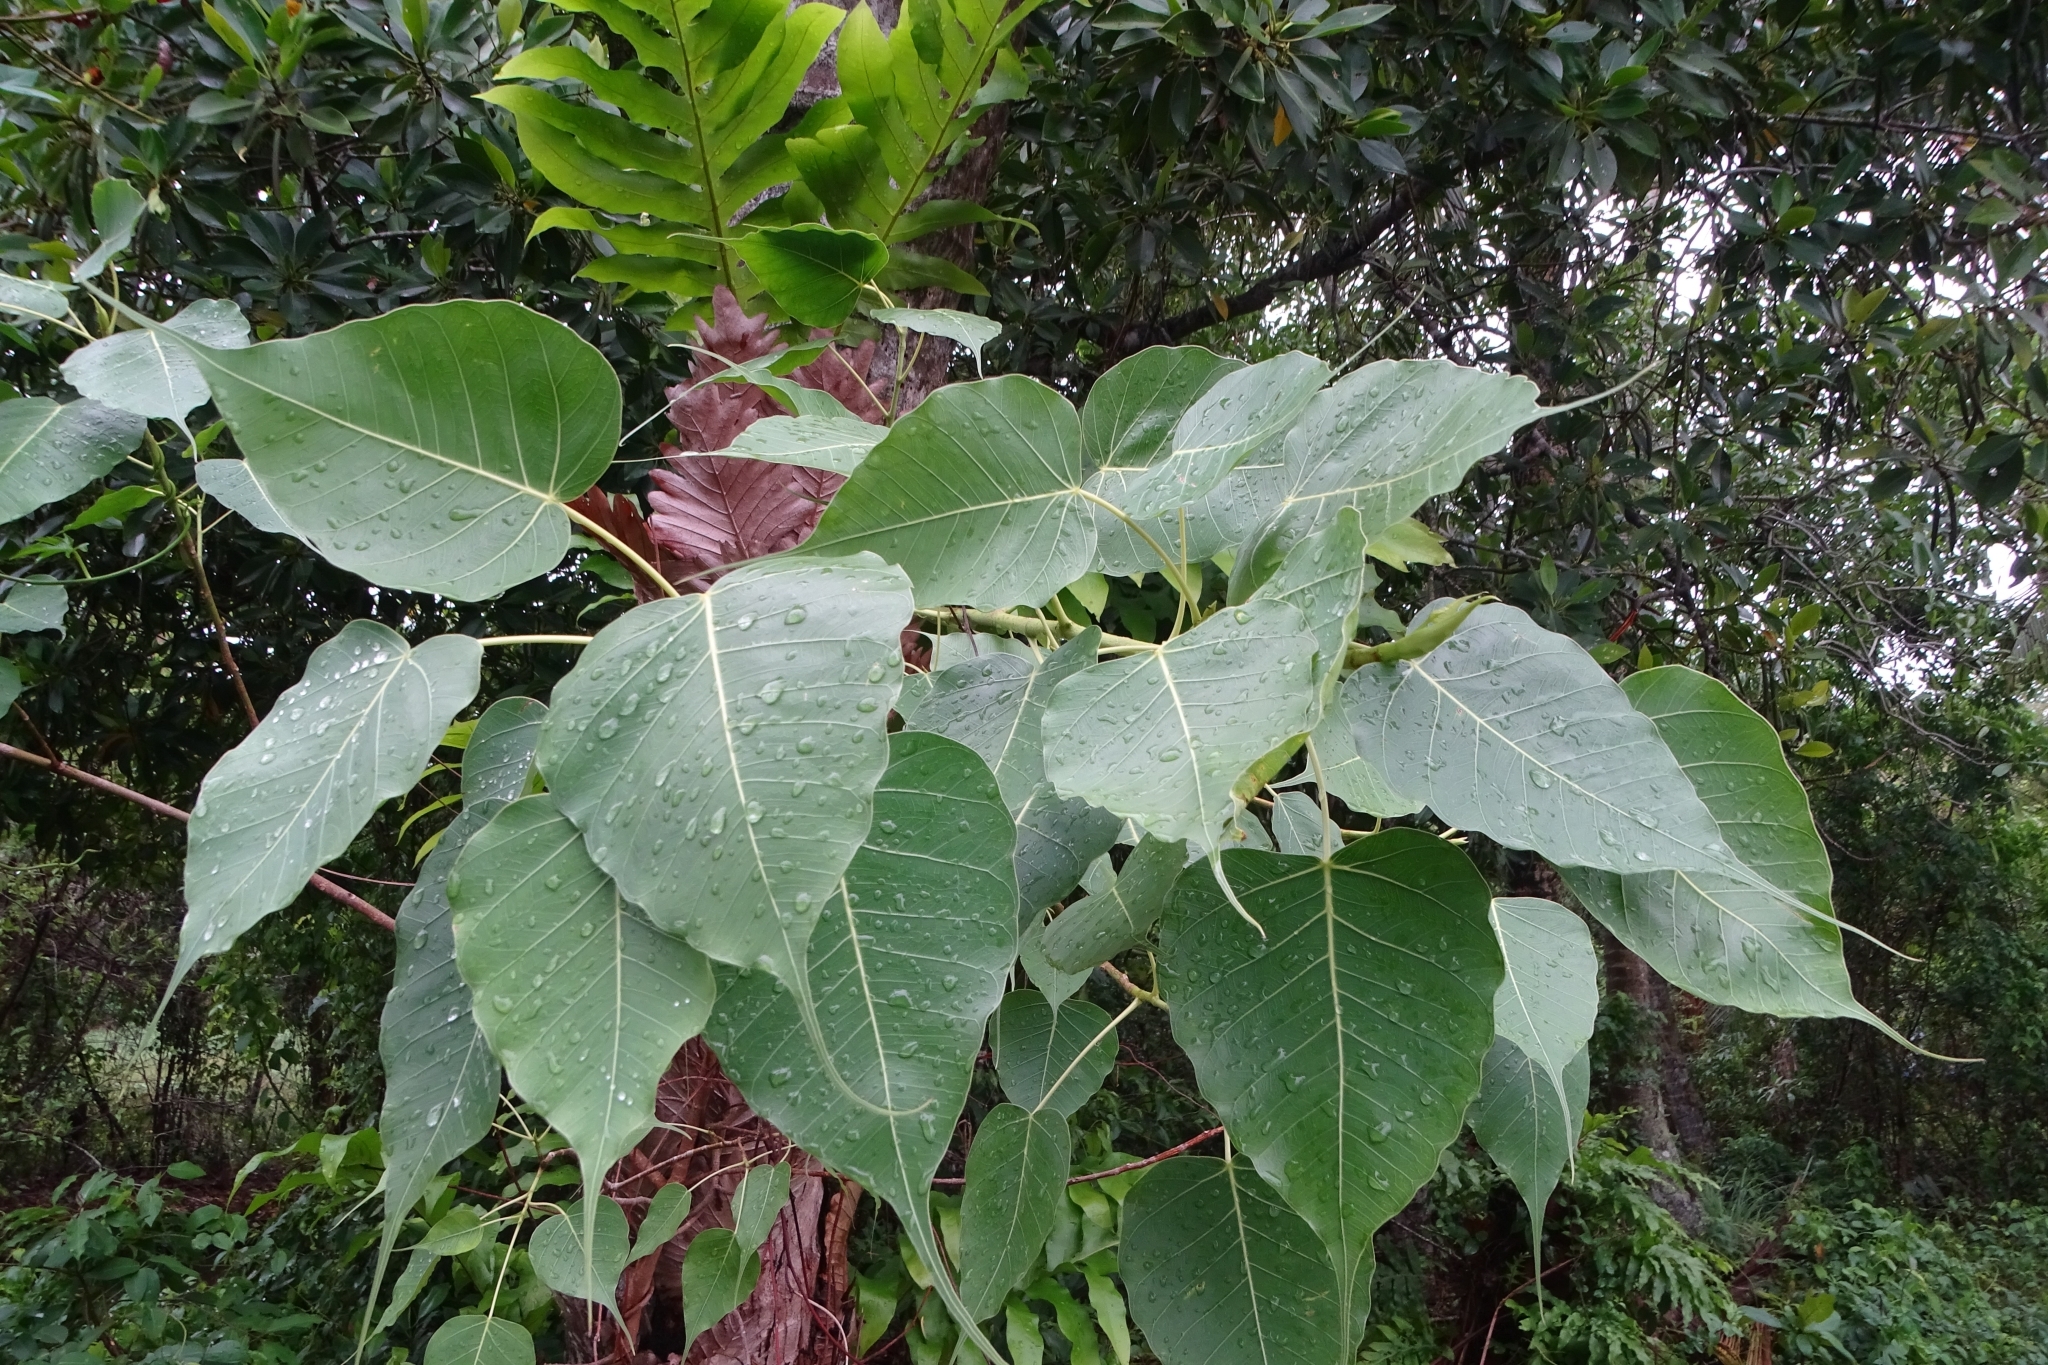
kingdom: Plantae
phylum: Tracheophyta
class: Magnoliopsida
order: Rosales
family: Moraceae
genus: Ficus
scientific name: Ficus religiosa
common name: Bodhi tree
